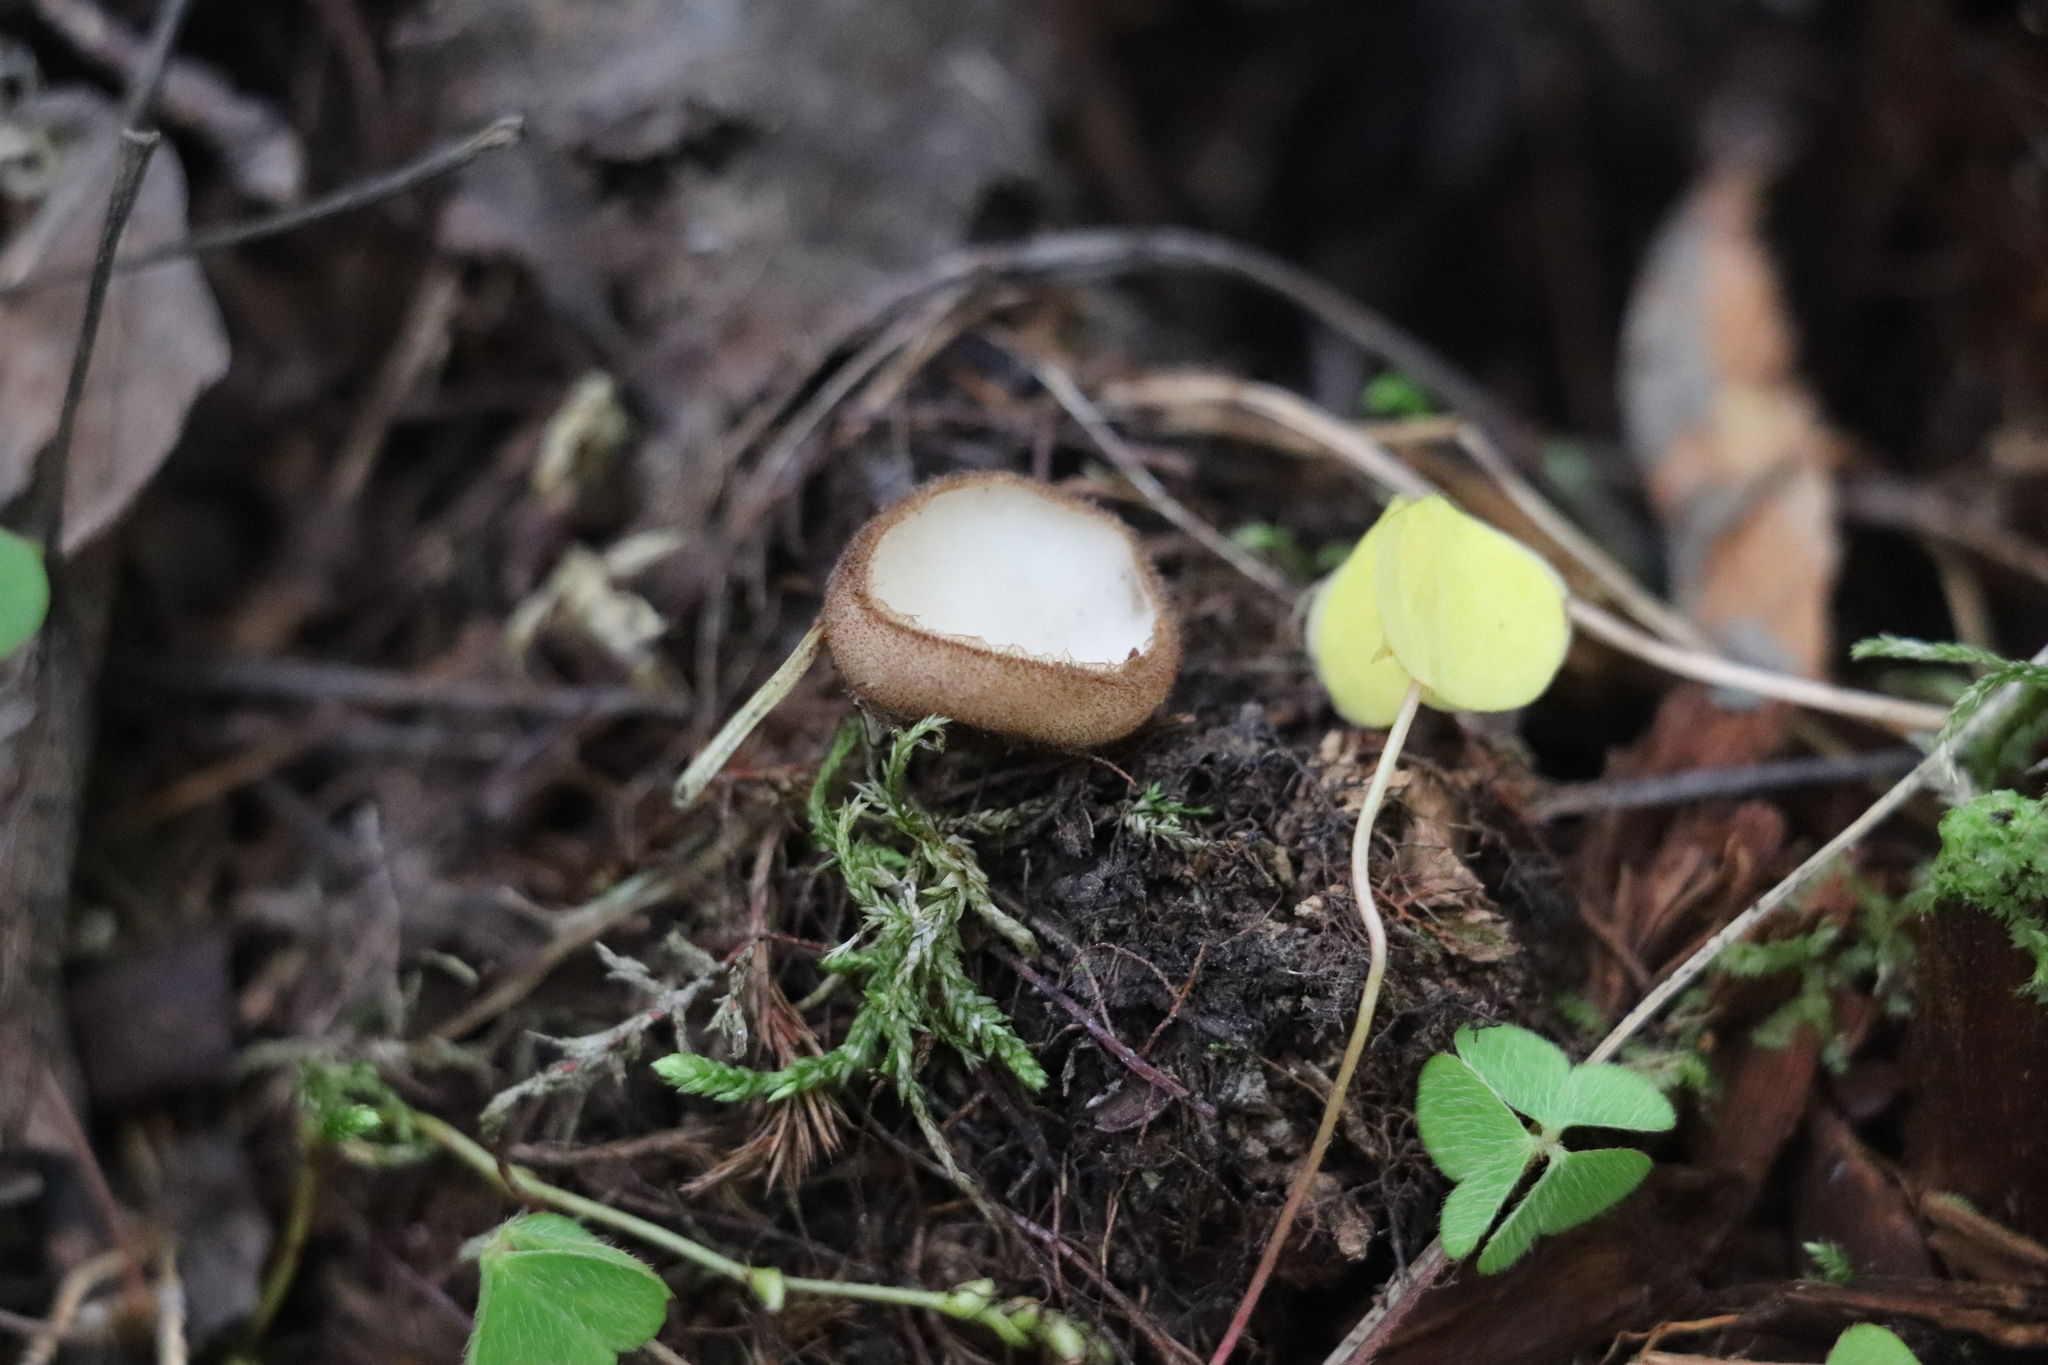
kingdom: Fungi
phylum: Ascomycota
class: Pezizomycetes
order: Pezizales
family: Pyronemataceae
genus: Humaria
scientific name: Humaria hemisphaerica
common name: Glazed cup
